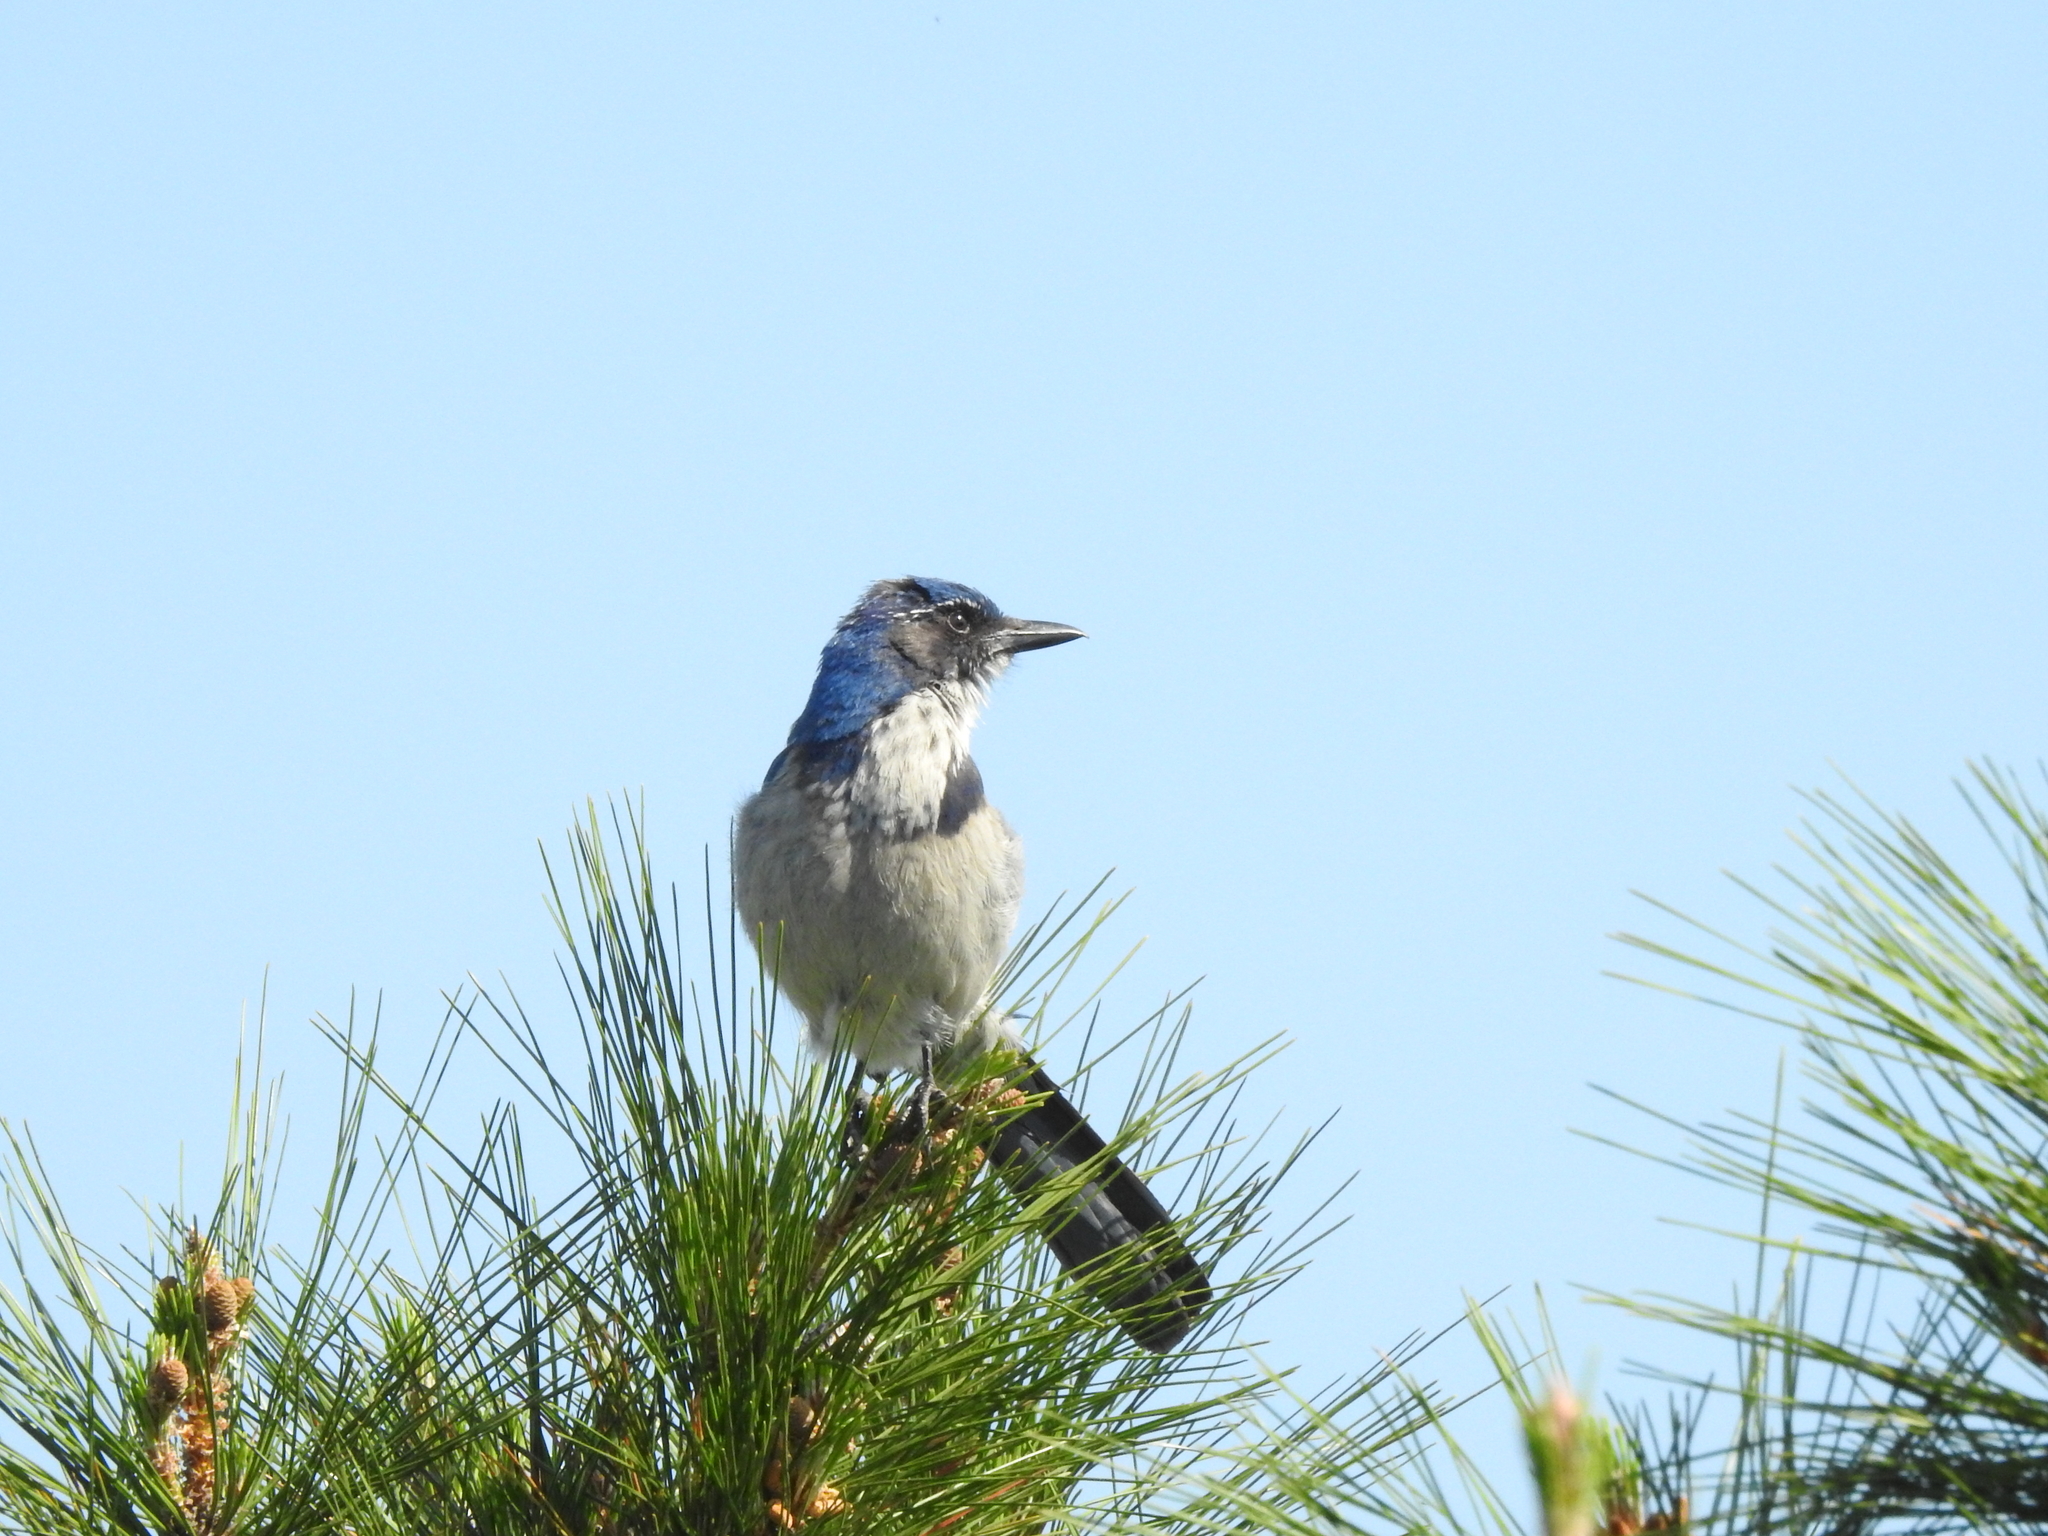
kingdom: Animalia
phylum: Chordata
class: Aves
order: Passeriformes
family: Corvidae
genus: Aphelocoma
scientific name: Aphelocoma californica
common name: California scrub-jay
